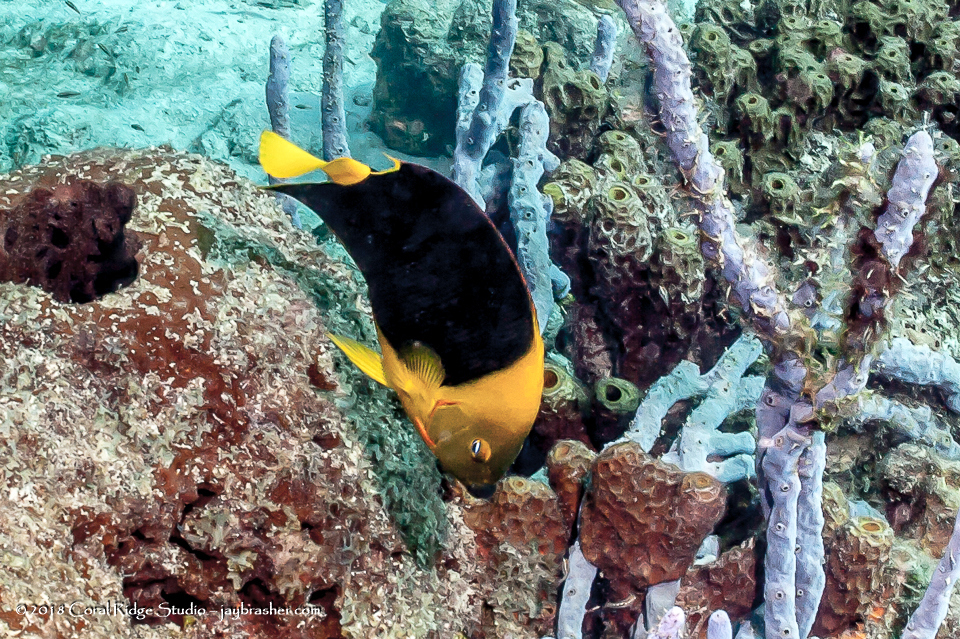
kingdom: Animalia
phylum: Chordata
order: Perciformes
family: Pomacanthidae
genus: Holacanthus
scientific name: Holacanthus tricolor
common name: Rock beauty
